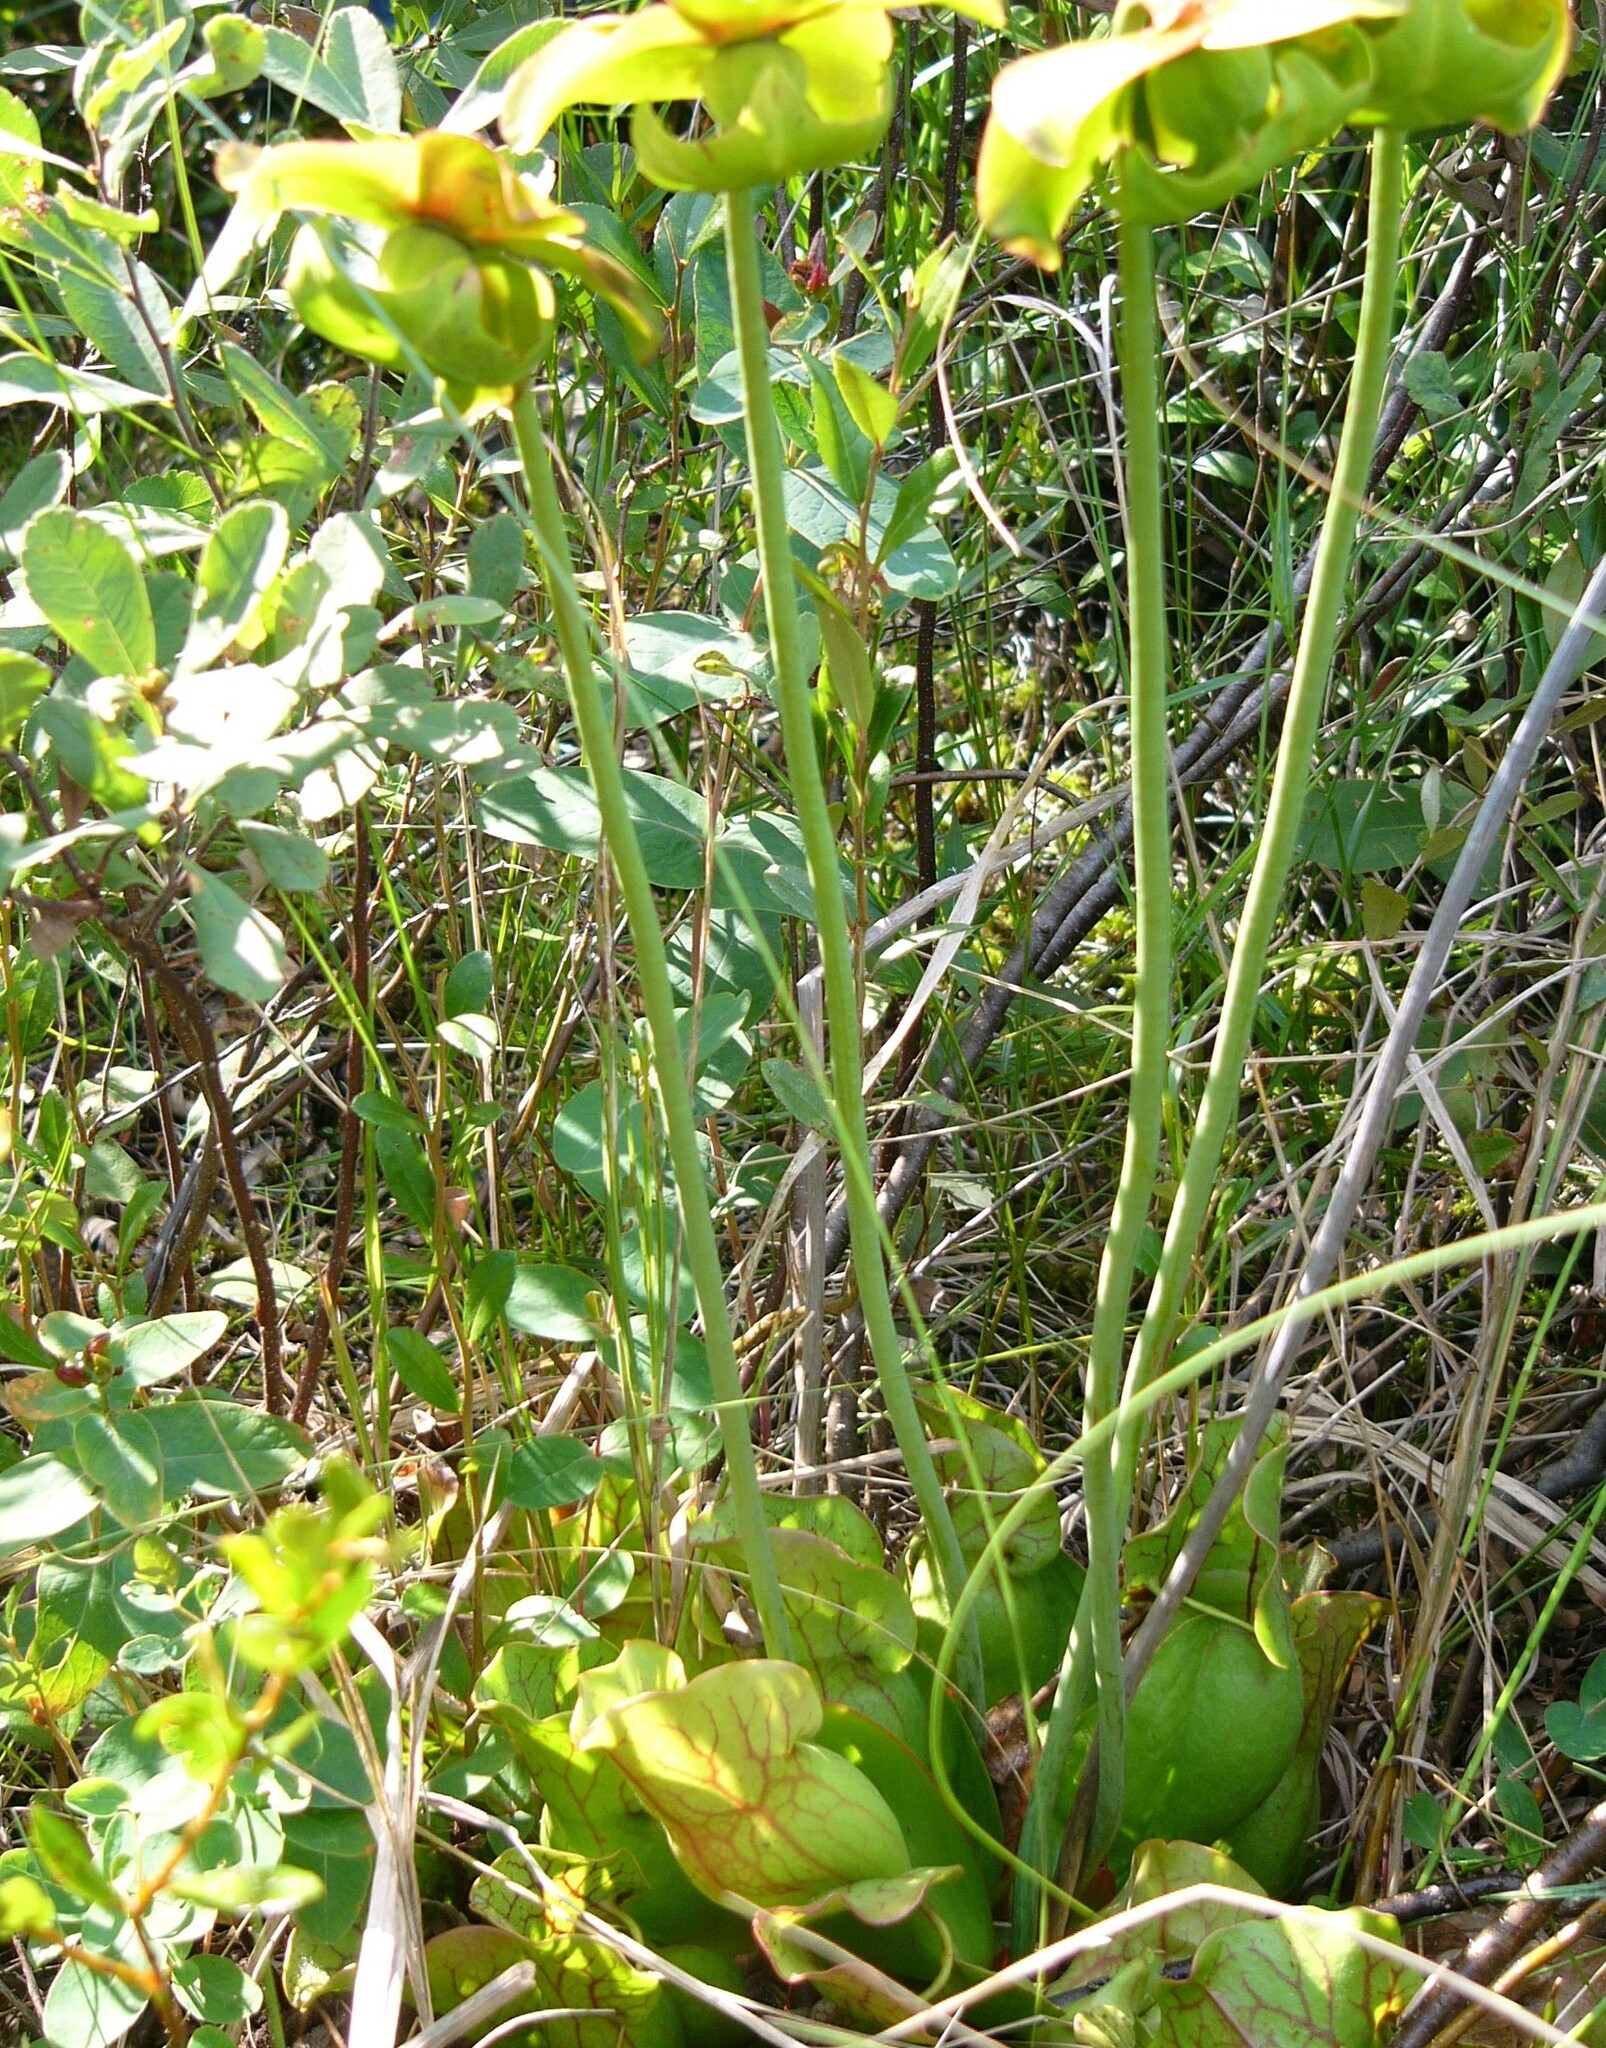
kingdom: Plantae
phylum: Tracheophyta
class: Magnoliopsida
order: Ericales
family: Sarraceniaceae
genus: Sarracenia
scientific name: Sarracenia purpurea
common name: Pitcherplant
